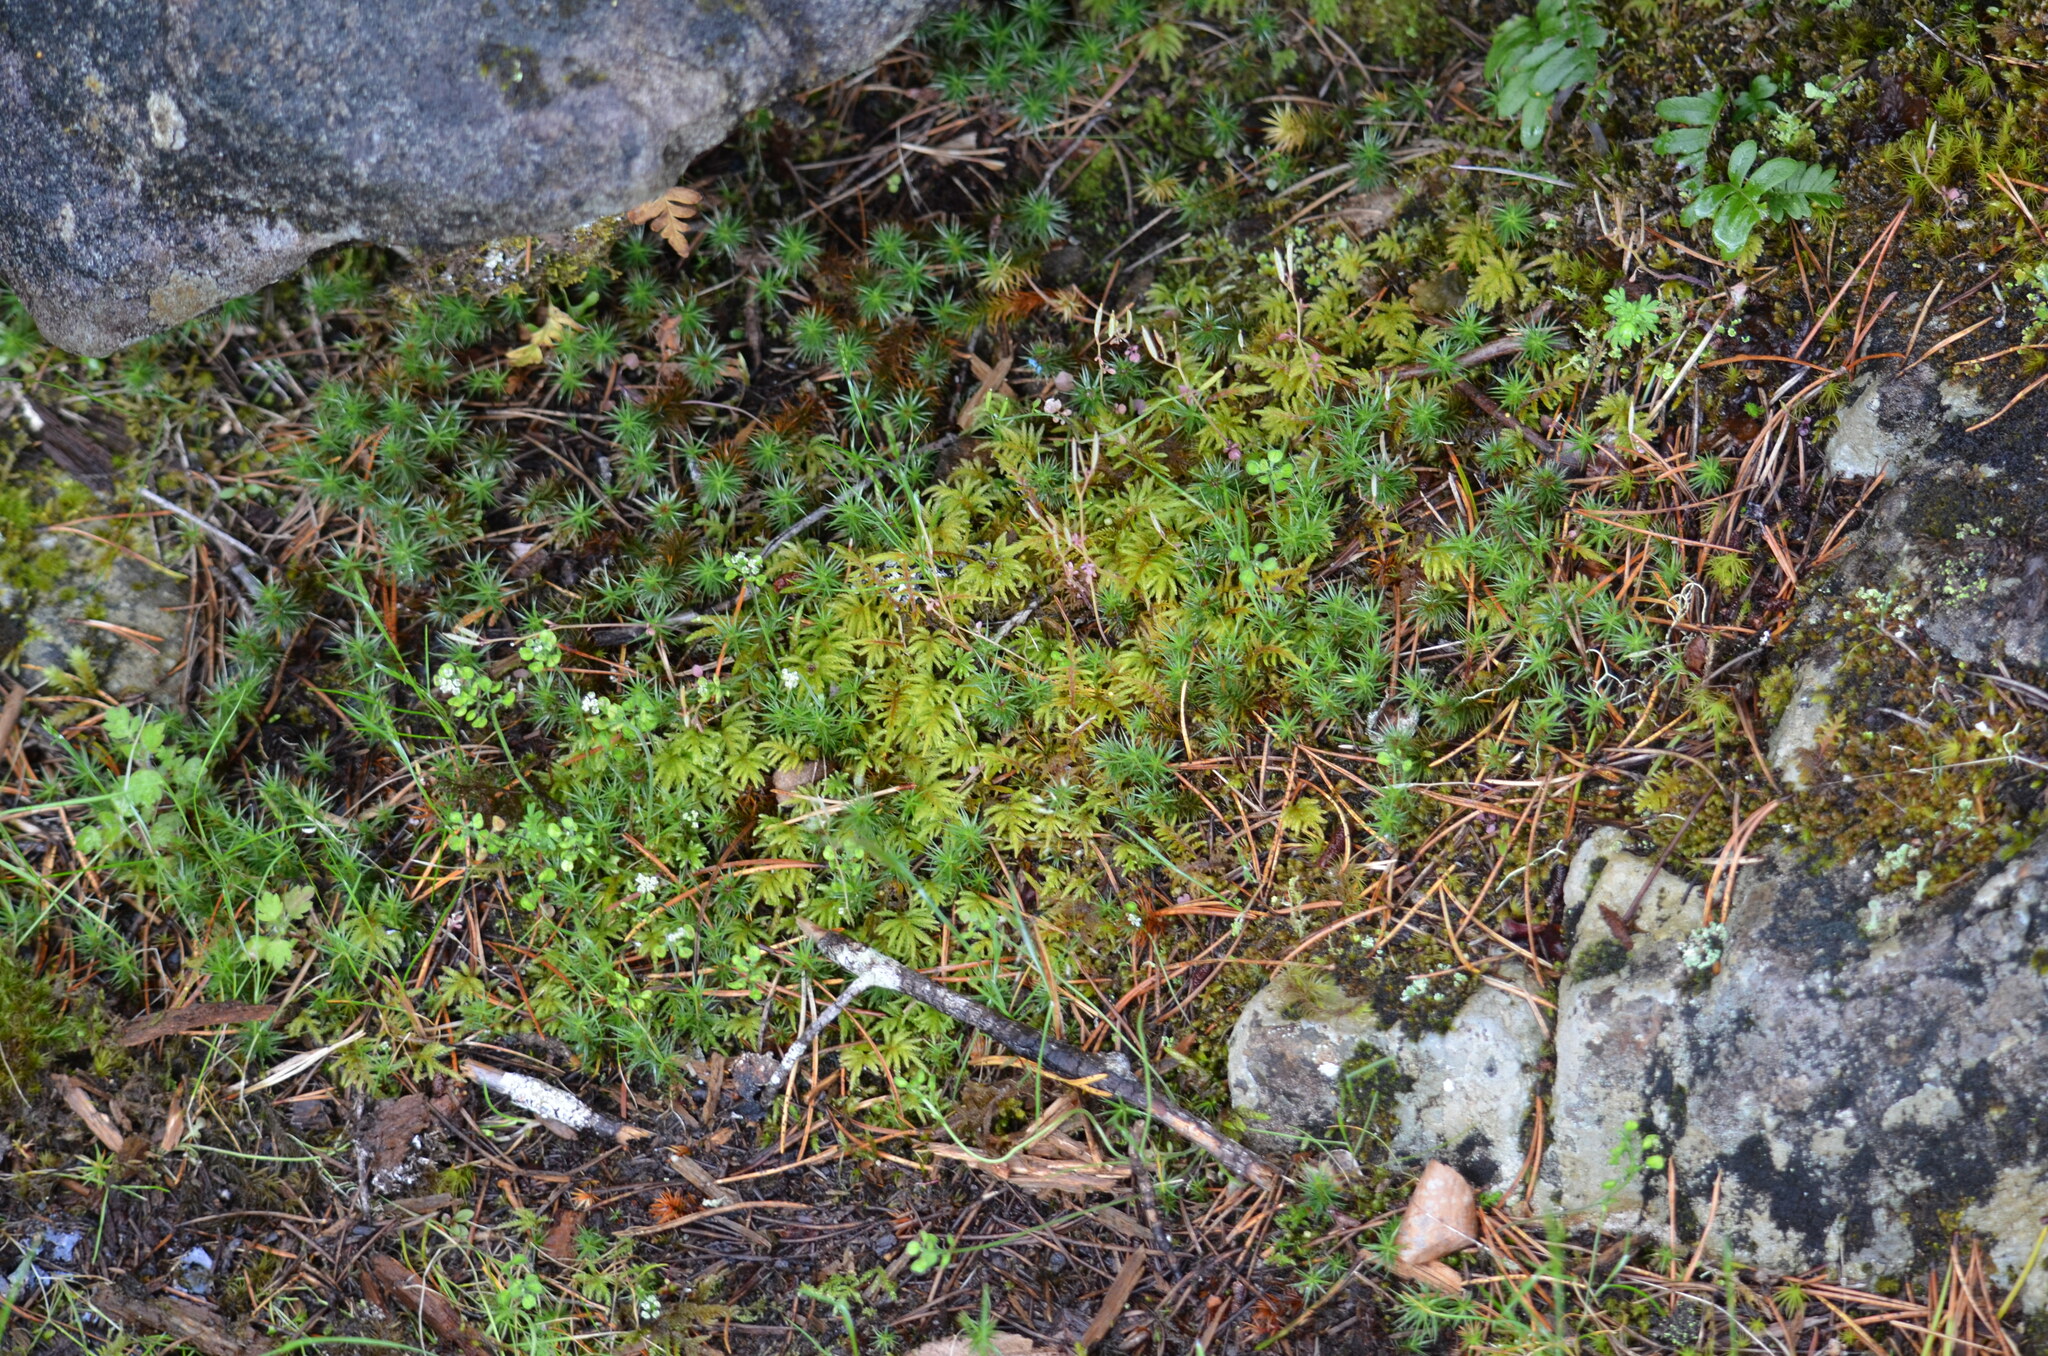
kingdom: Plantae
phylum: Bryophyta
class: Polytrichopsida
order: Polytrichales
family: Polytrichaceae
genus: Polytrichum
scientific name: Polytrichum juniperinum
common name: Juniper haircap moss
